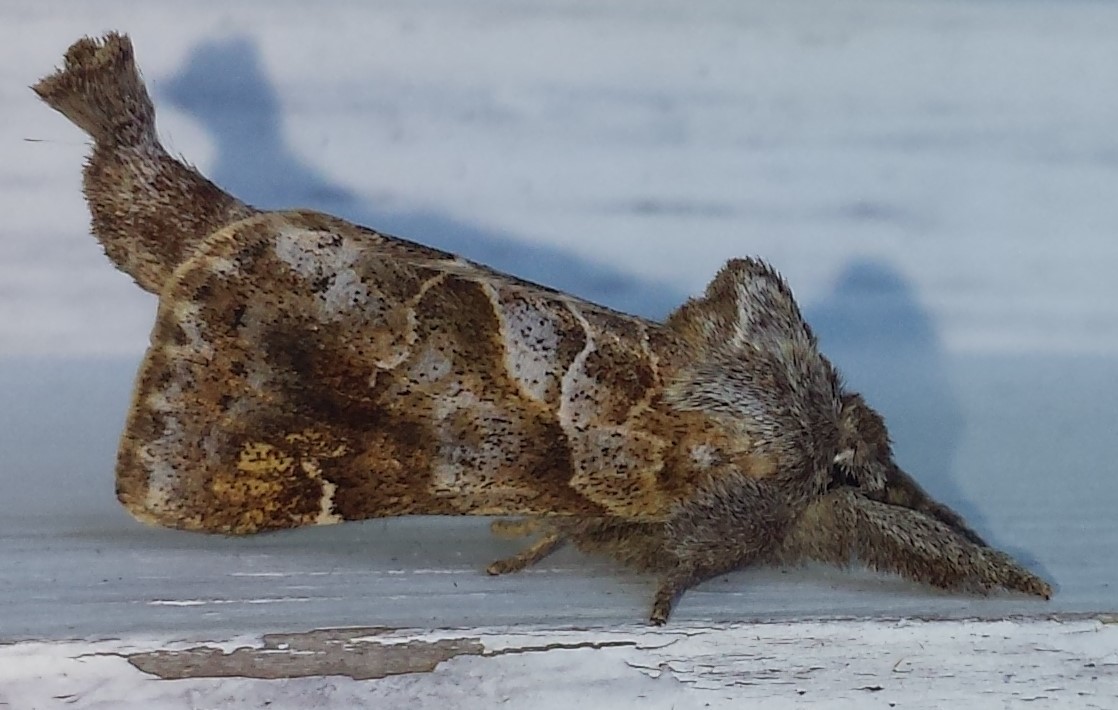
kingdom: Animalia
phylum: Arthropoda
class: Insecta
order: Lepidoptera
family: Notodontidae
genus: Clostera
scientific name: Clostera strigosa
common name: Striped chocolate-tip moth
